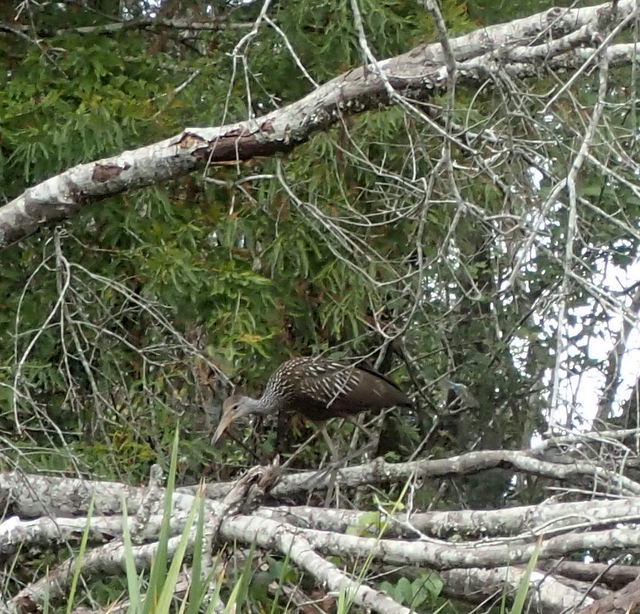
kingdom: Animalia
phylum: Chordata
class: Aves
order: Gruiformes
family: Aramidae
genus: Aramus
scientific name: Aramus guarauna
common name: Limpkin
